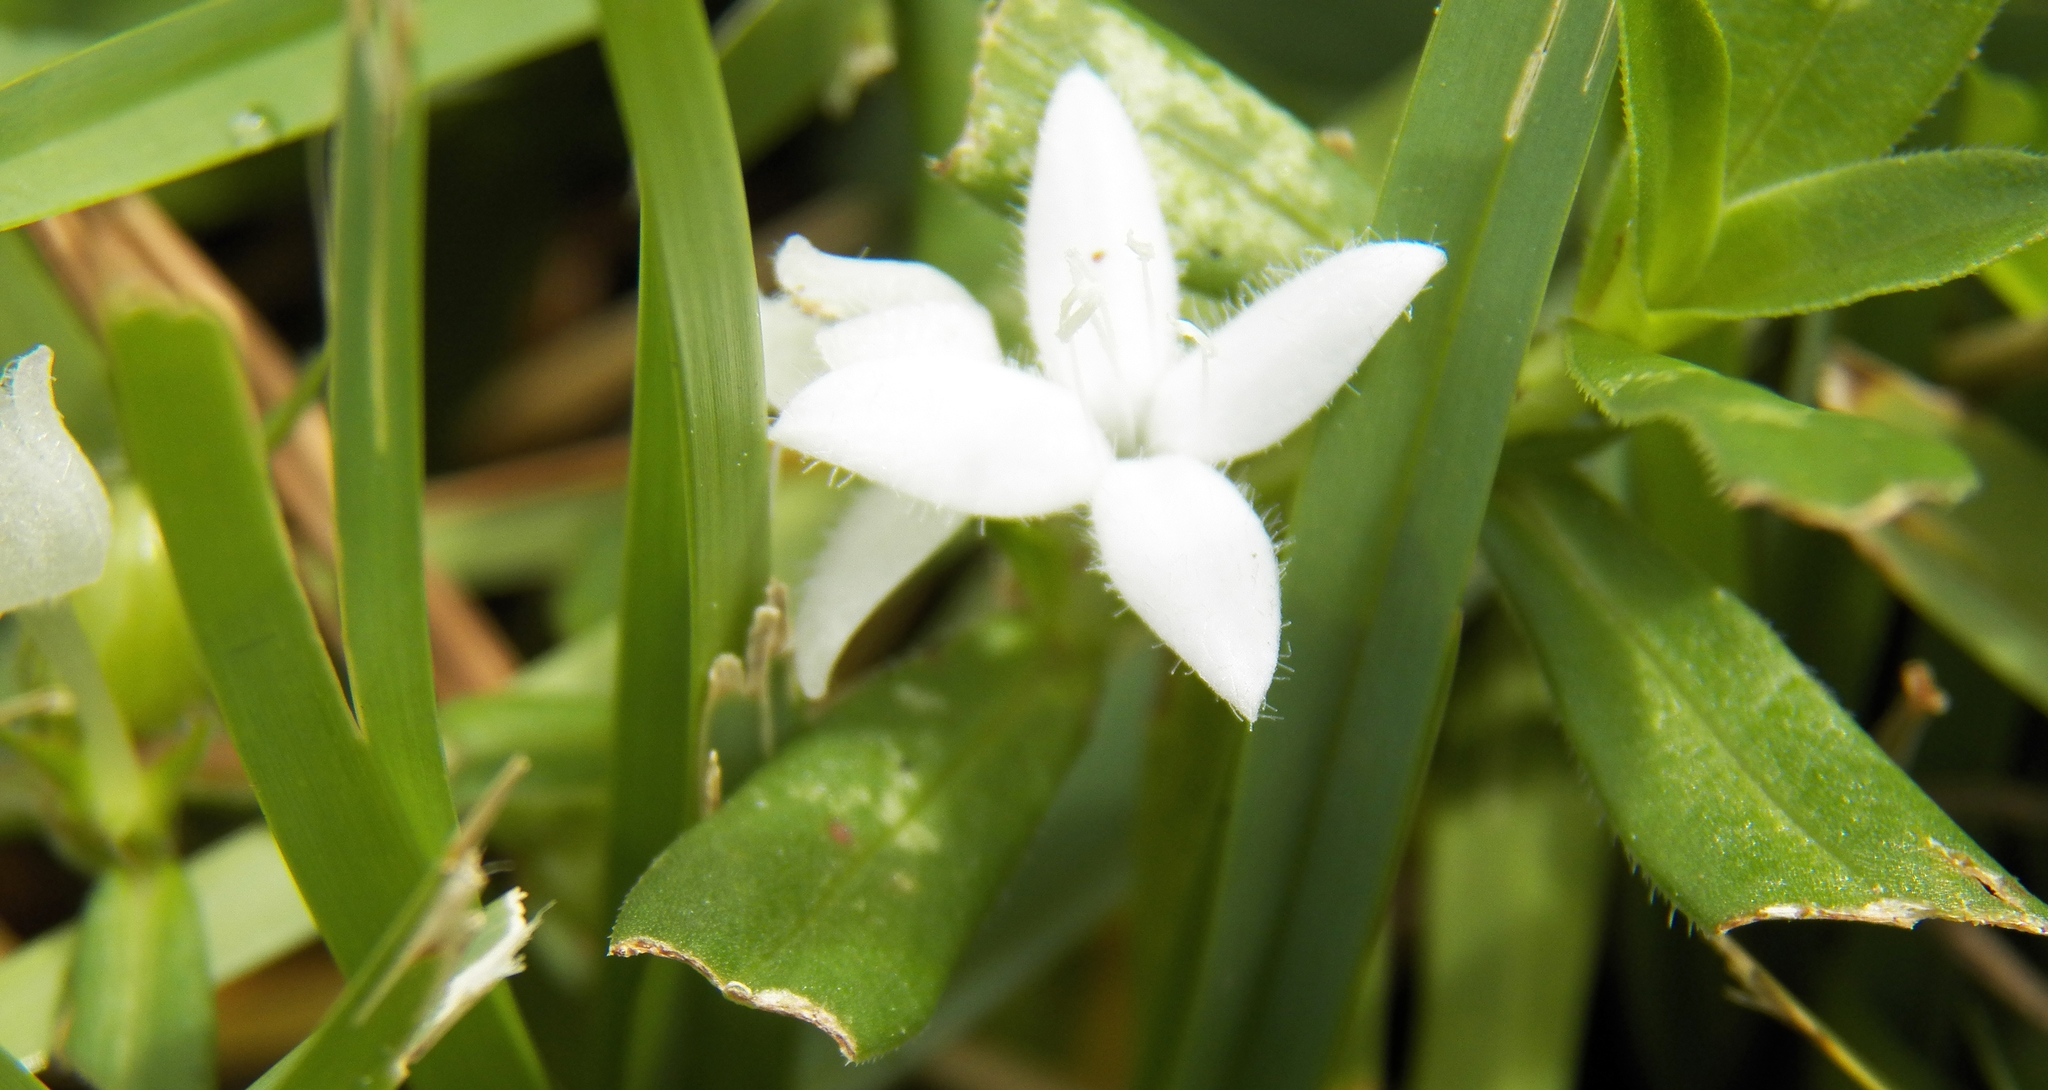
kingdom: Plantae
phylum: Tracheophyta
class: Magnoliopsida
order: Gentianales
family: Rubiaceae
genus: Diodia
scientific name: Diodia virginiana
